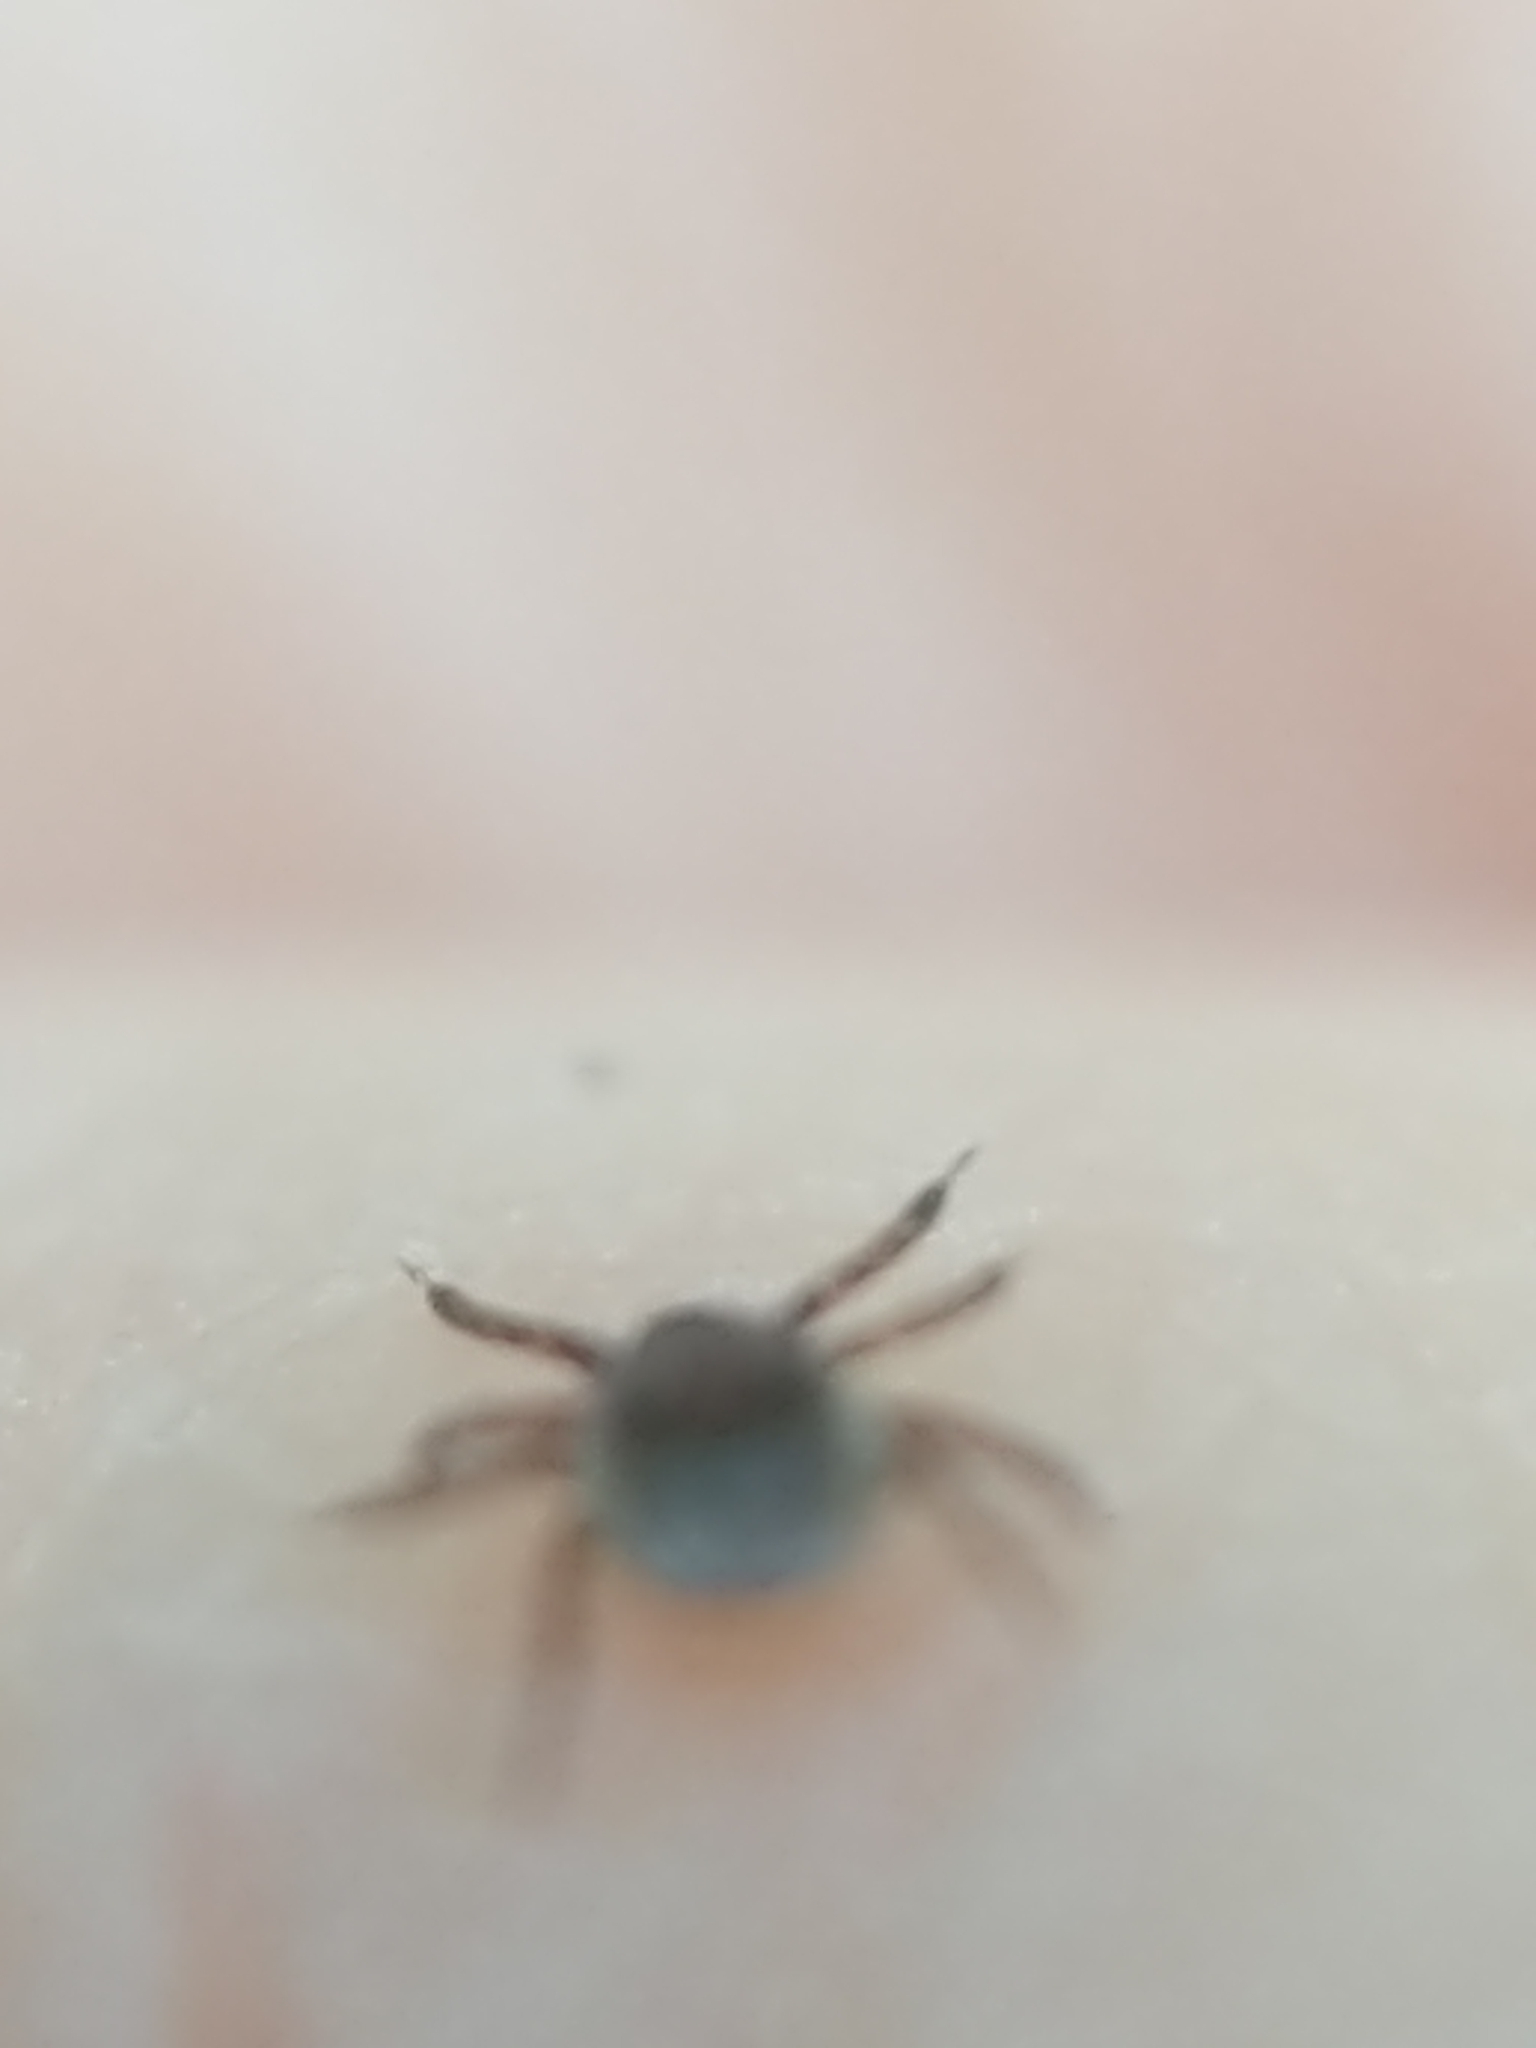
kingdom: Animalia
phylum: Arthropoda
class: Arachnida
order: Ixodida
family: Ixodidae
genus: Ixodes
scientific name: Ixodes scapularis
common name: Black legged tick
